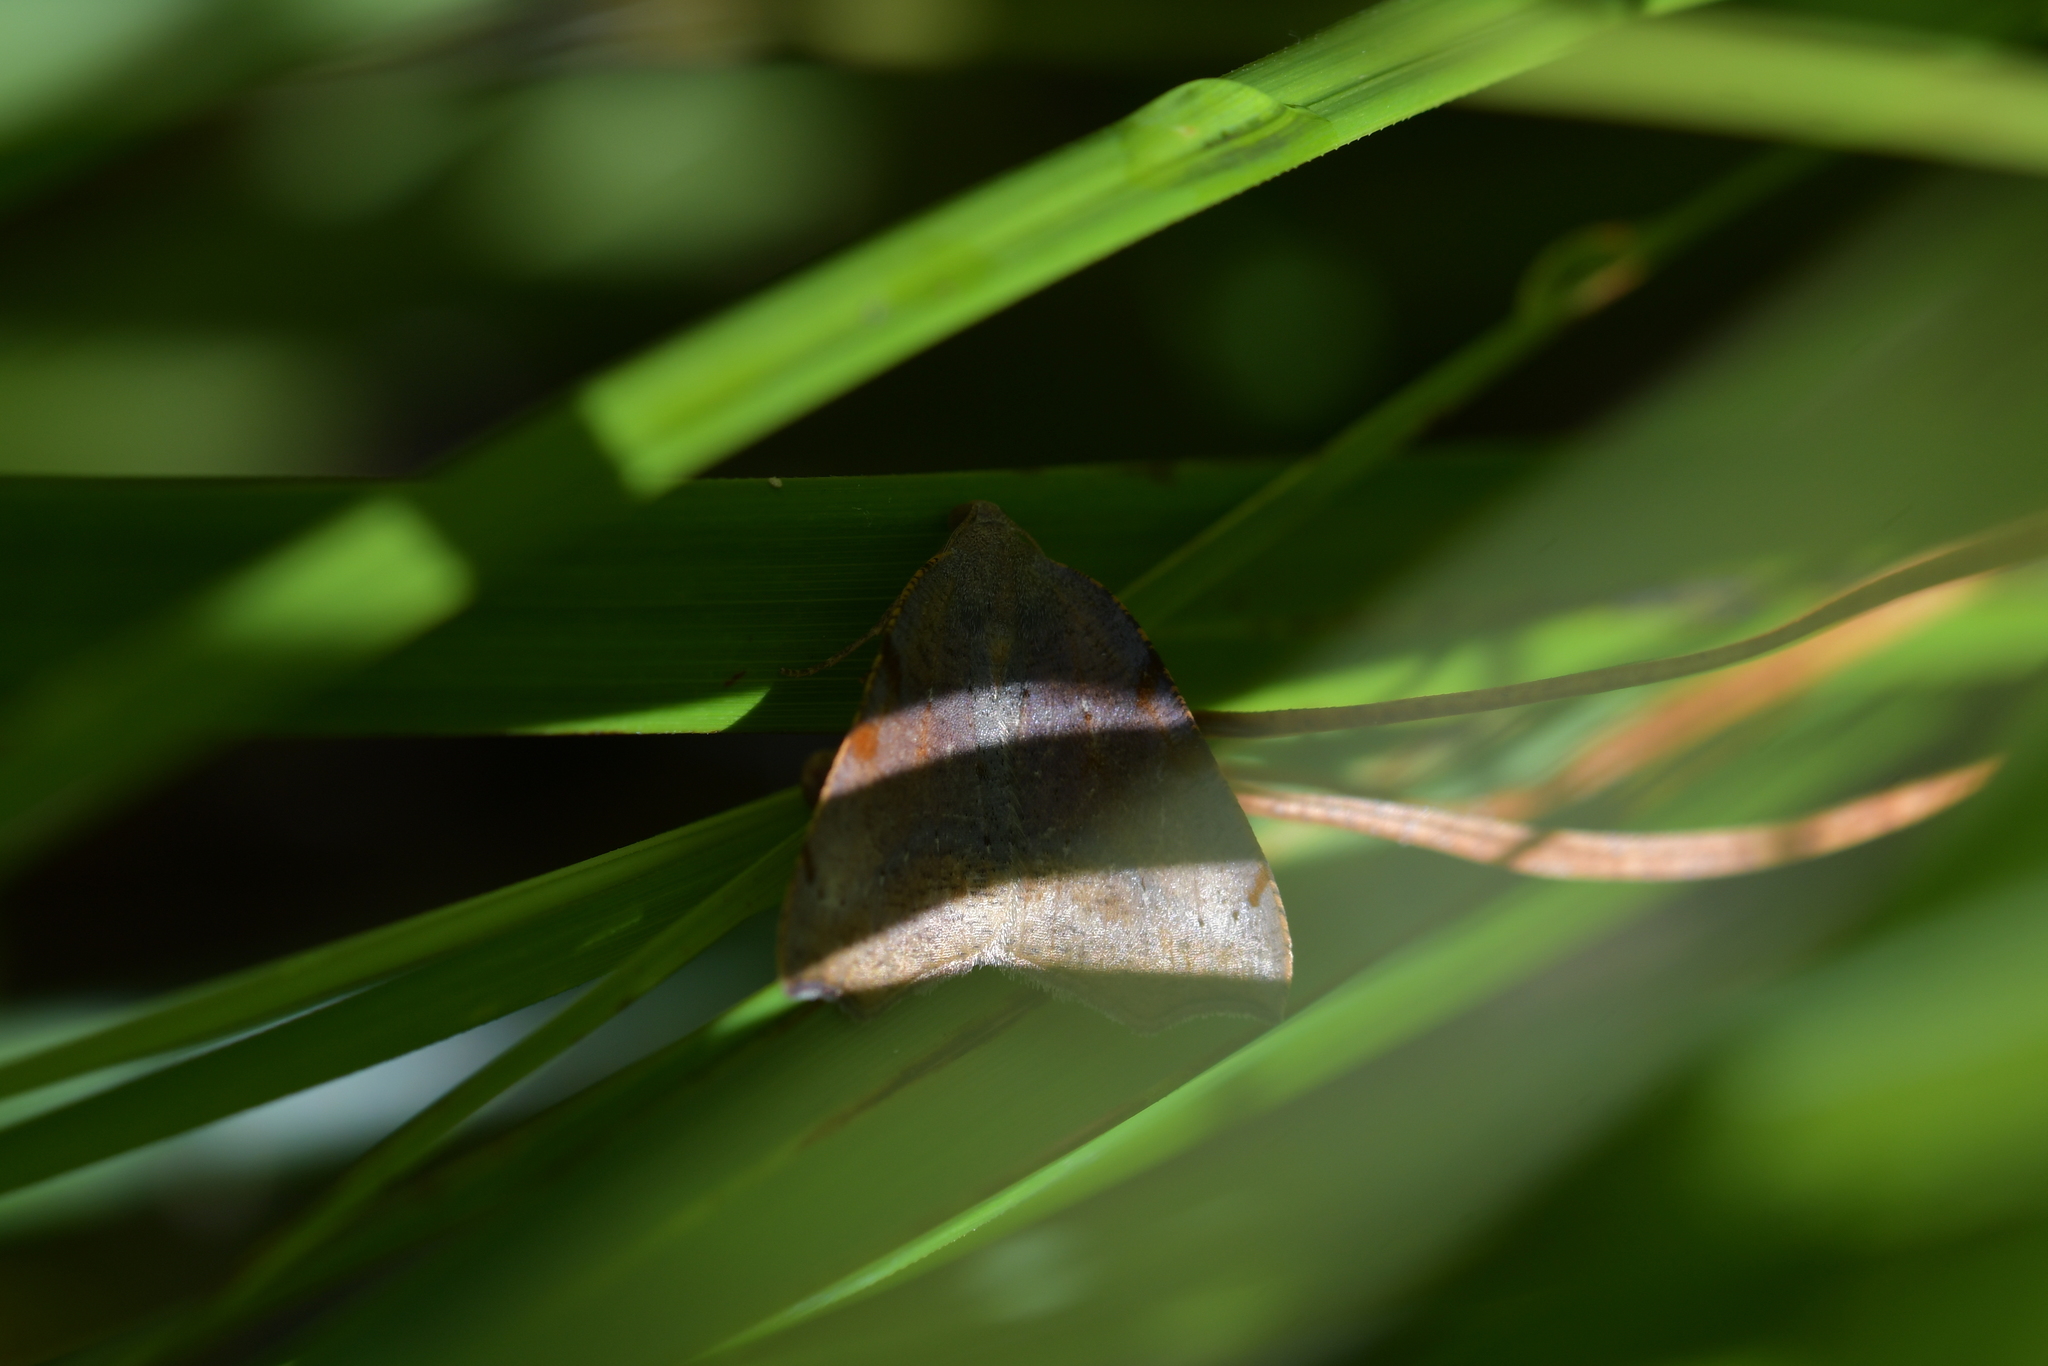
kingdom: Animalia
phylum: Arthropoda
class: Insecta
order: Lepidoptera
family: Geometridae
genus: Sestra
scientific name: Sestra flexata
